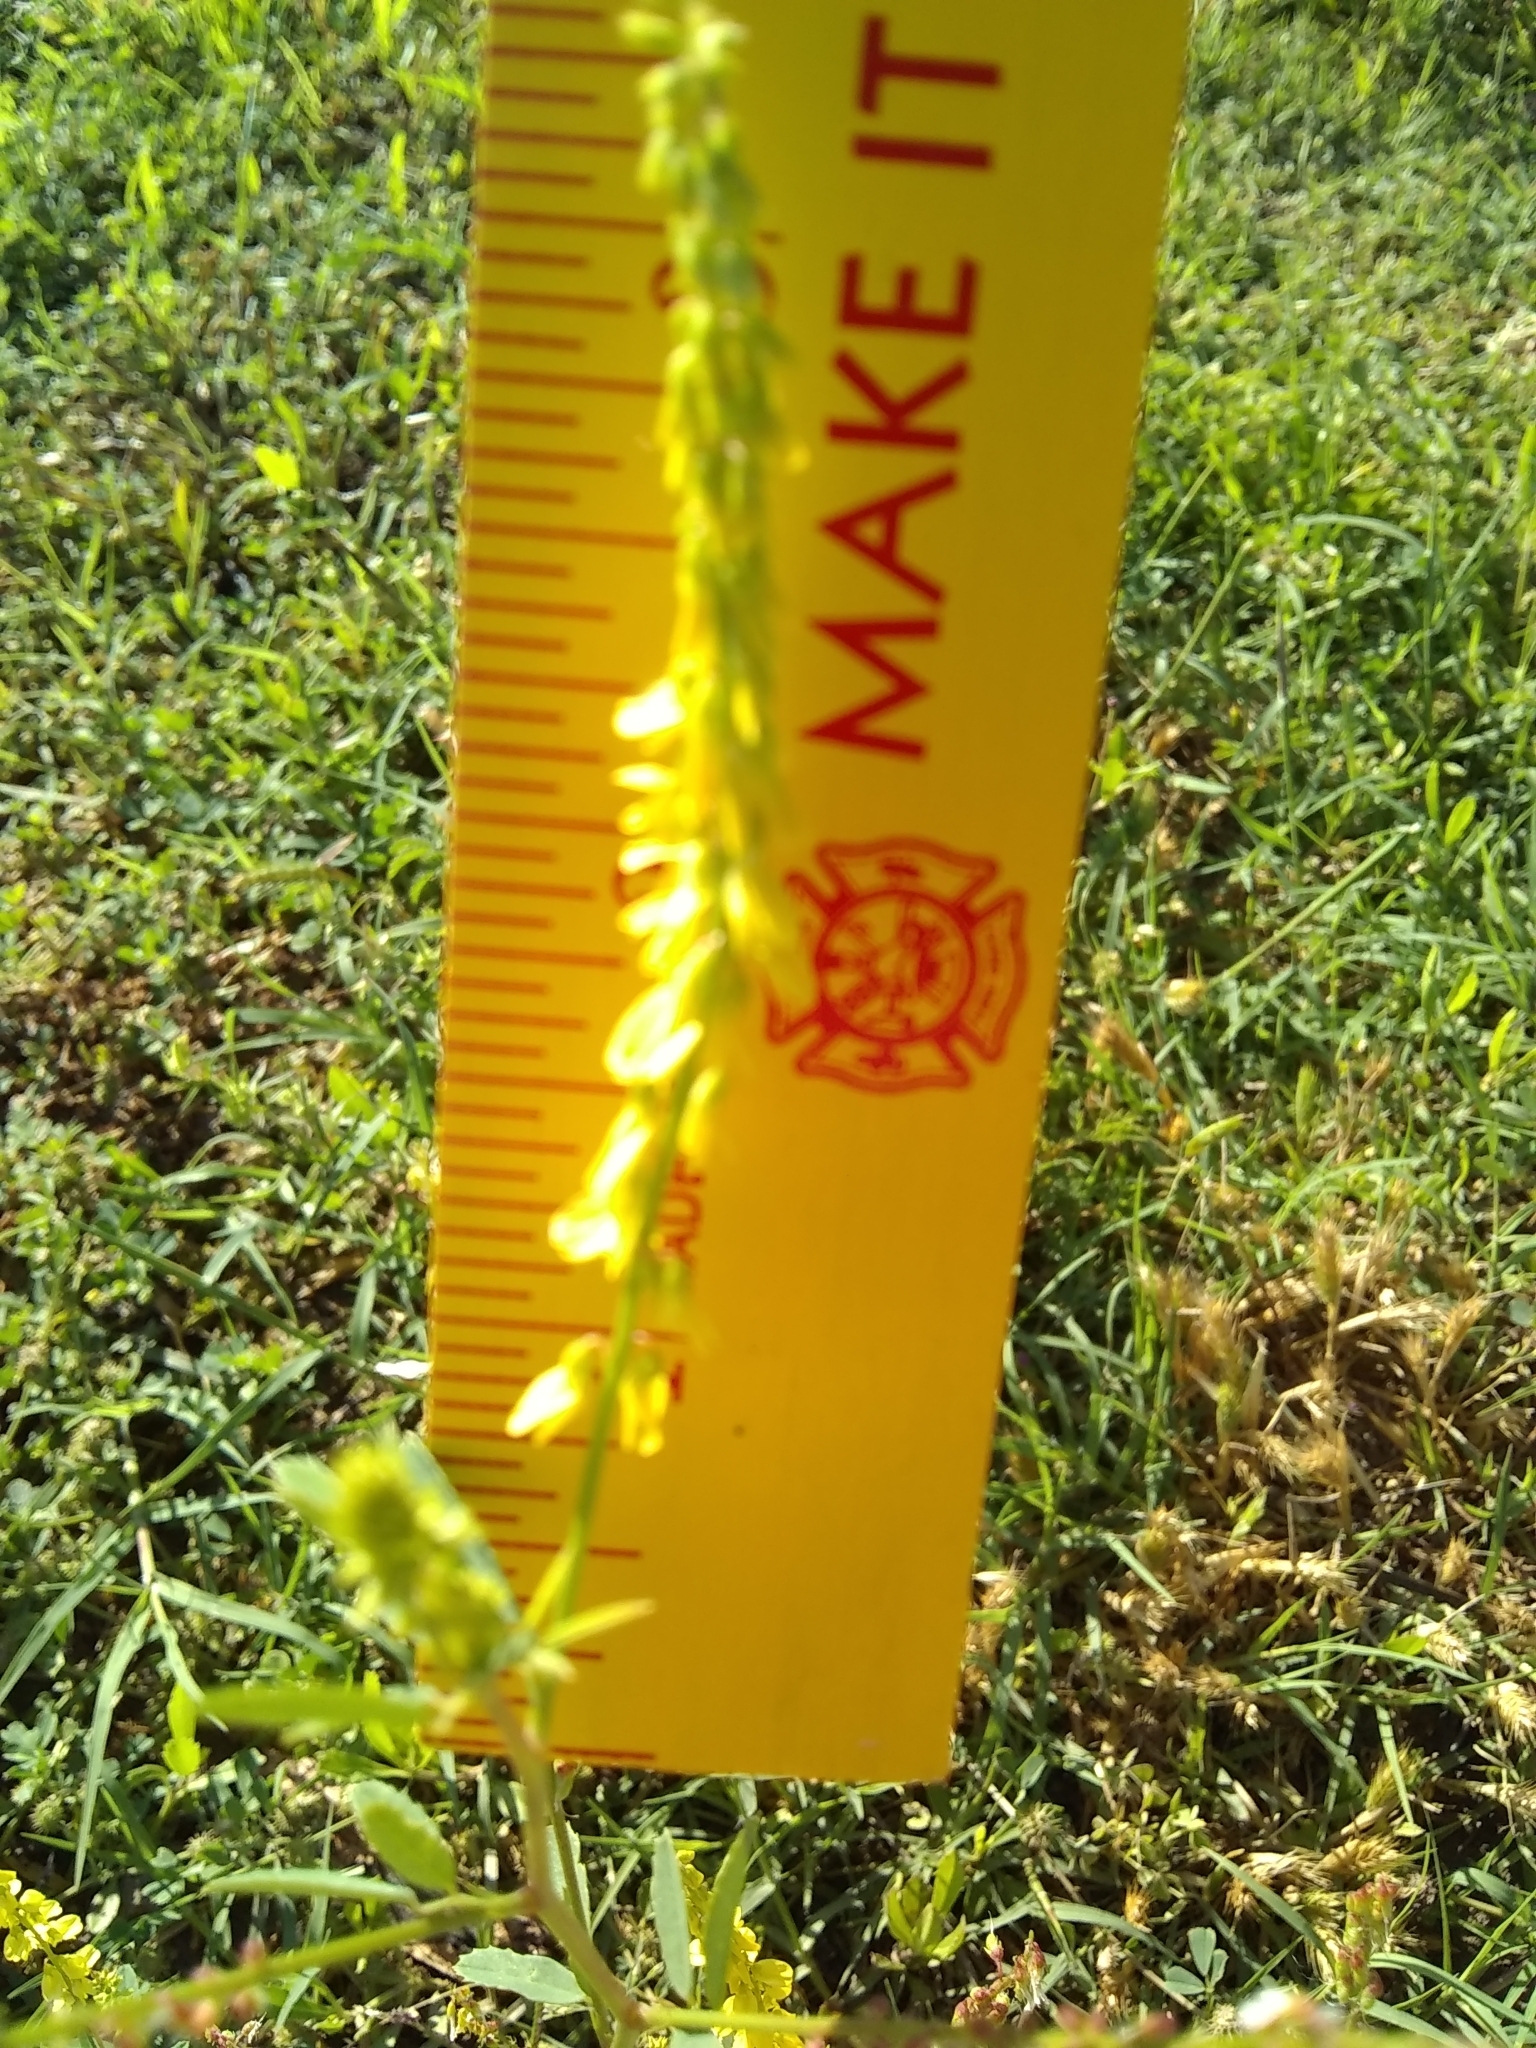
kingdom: Plantae
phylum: Tracheophyta
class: Magnoliopsida
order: Fabales
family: Fabaceae
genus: Melilotus
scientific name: Melilotus officinalis
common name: Sweetclover
